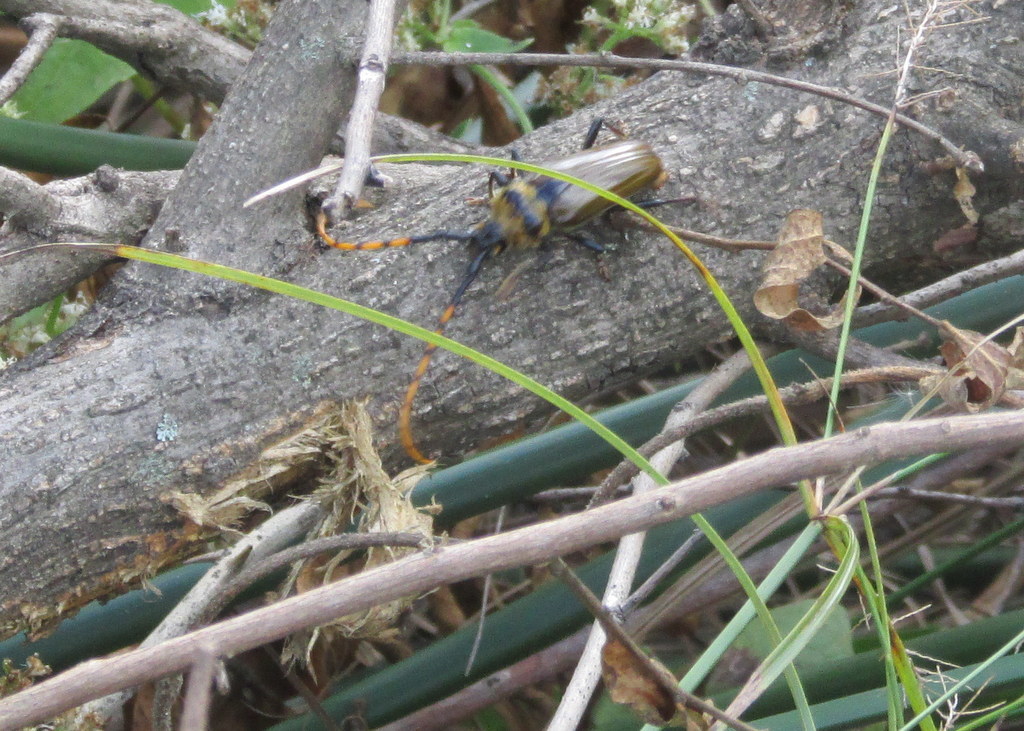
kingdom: Animalia
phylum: Arthropoda
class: Insecta
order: Coleoptera
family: Cerambycidae
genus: Retrachydes
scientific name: Retrachydes thoracicus
